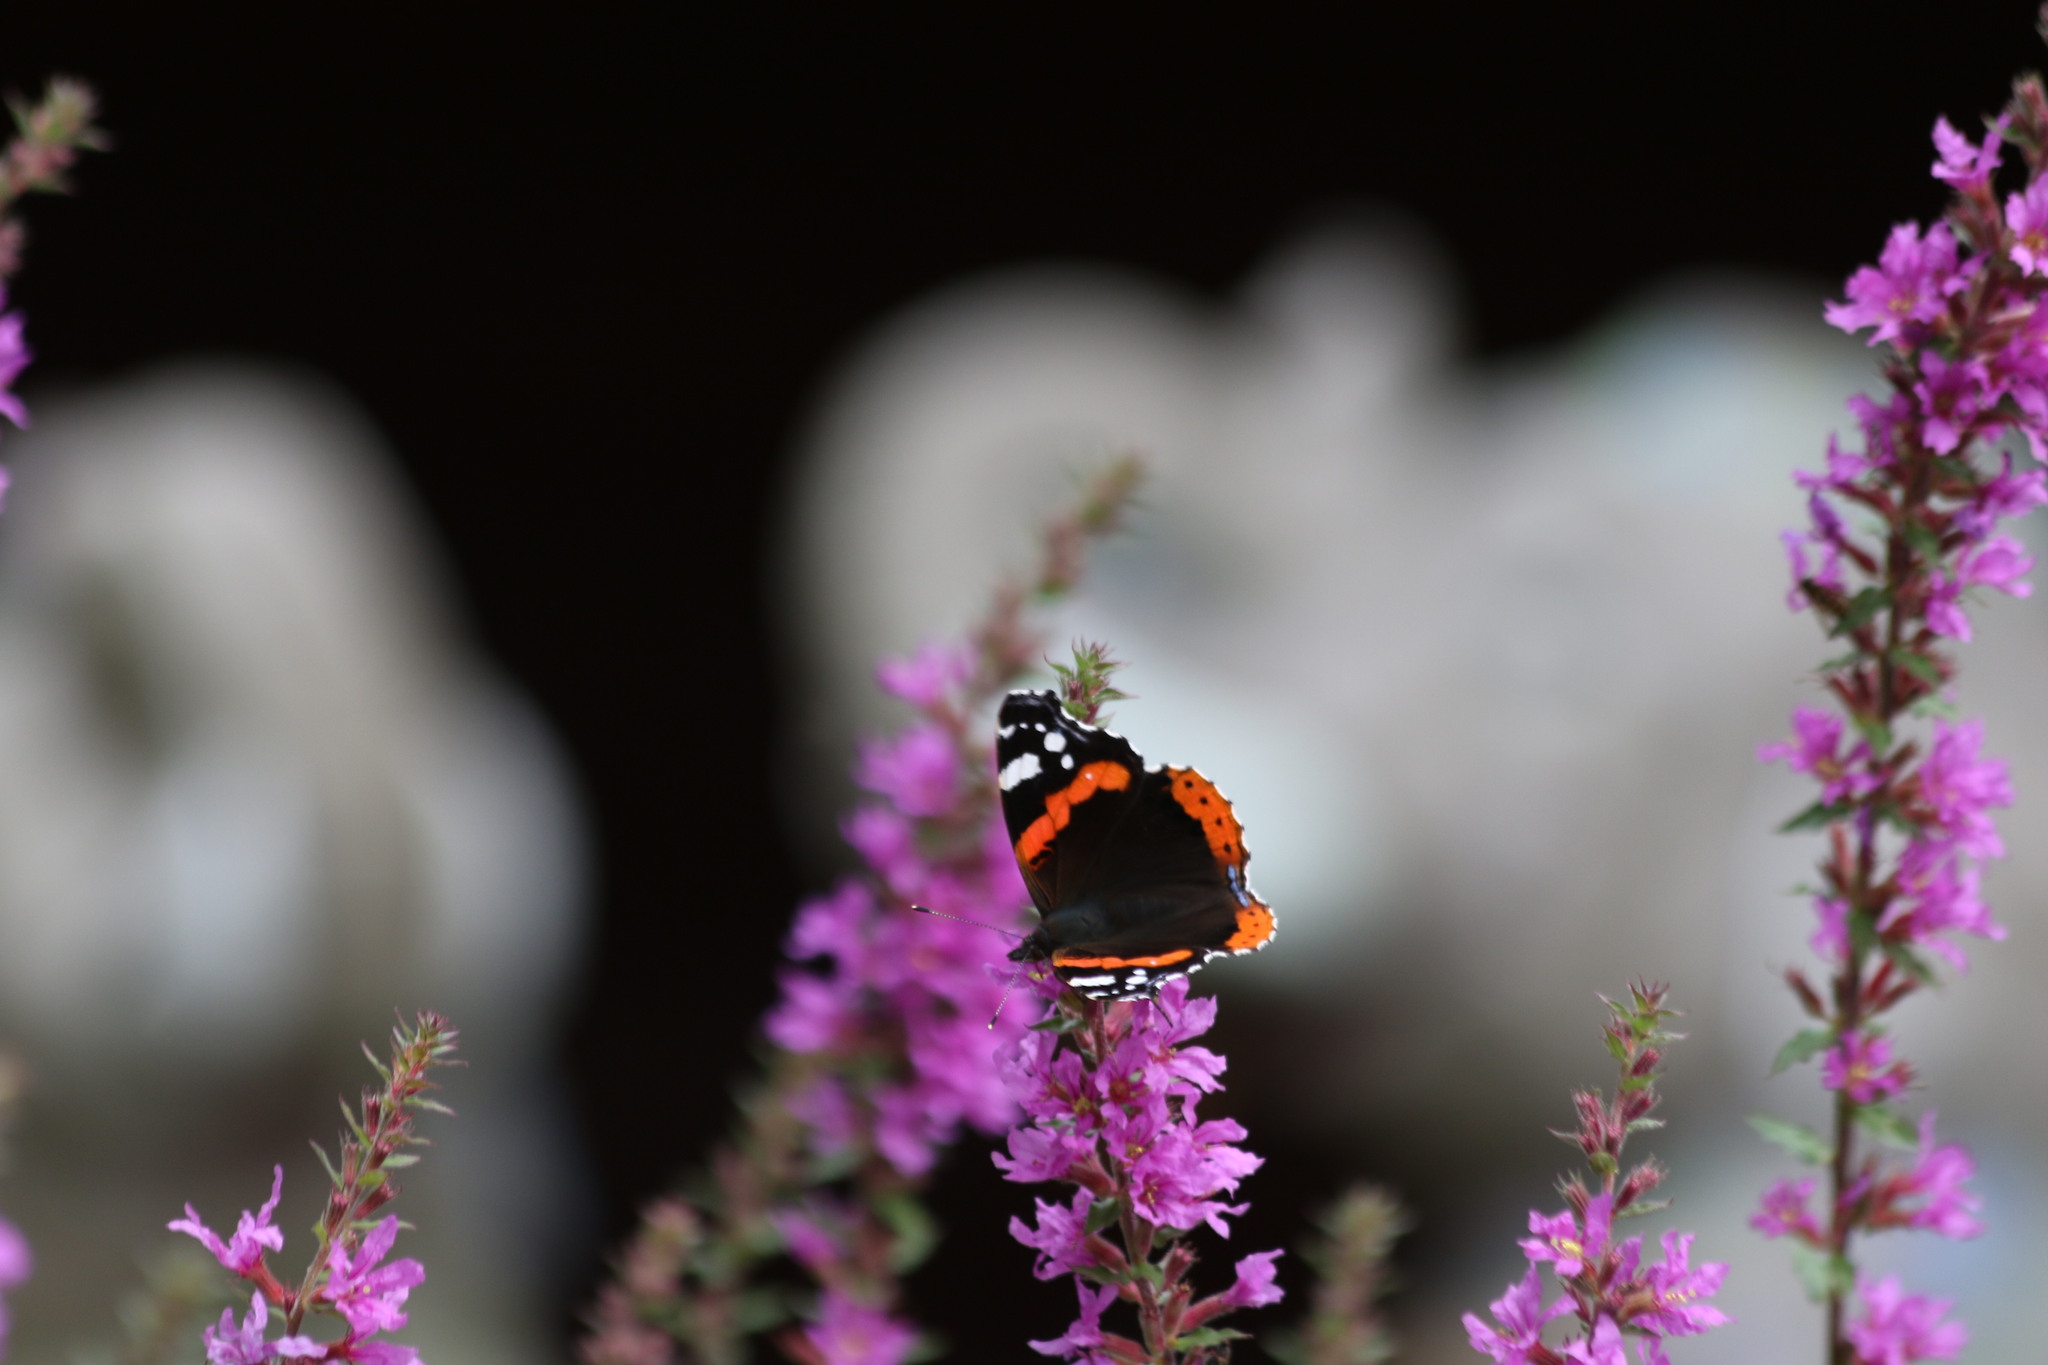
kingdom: Animalia
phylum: Arthropoda
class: Insecta
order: Lepidoptera
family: Nymphalidae
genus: Vanessa
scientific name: Vanessa atalanta
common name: Red admiral
